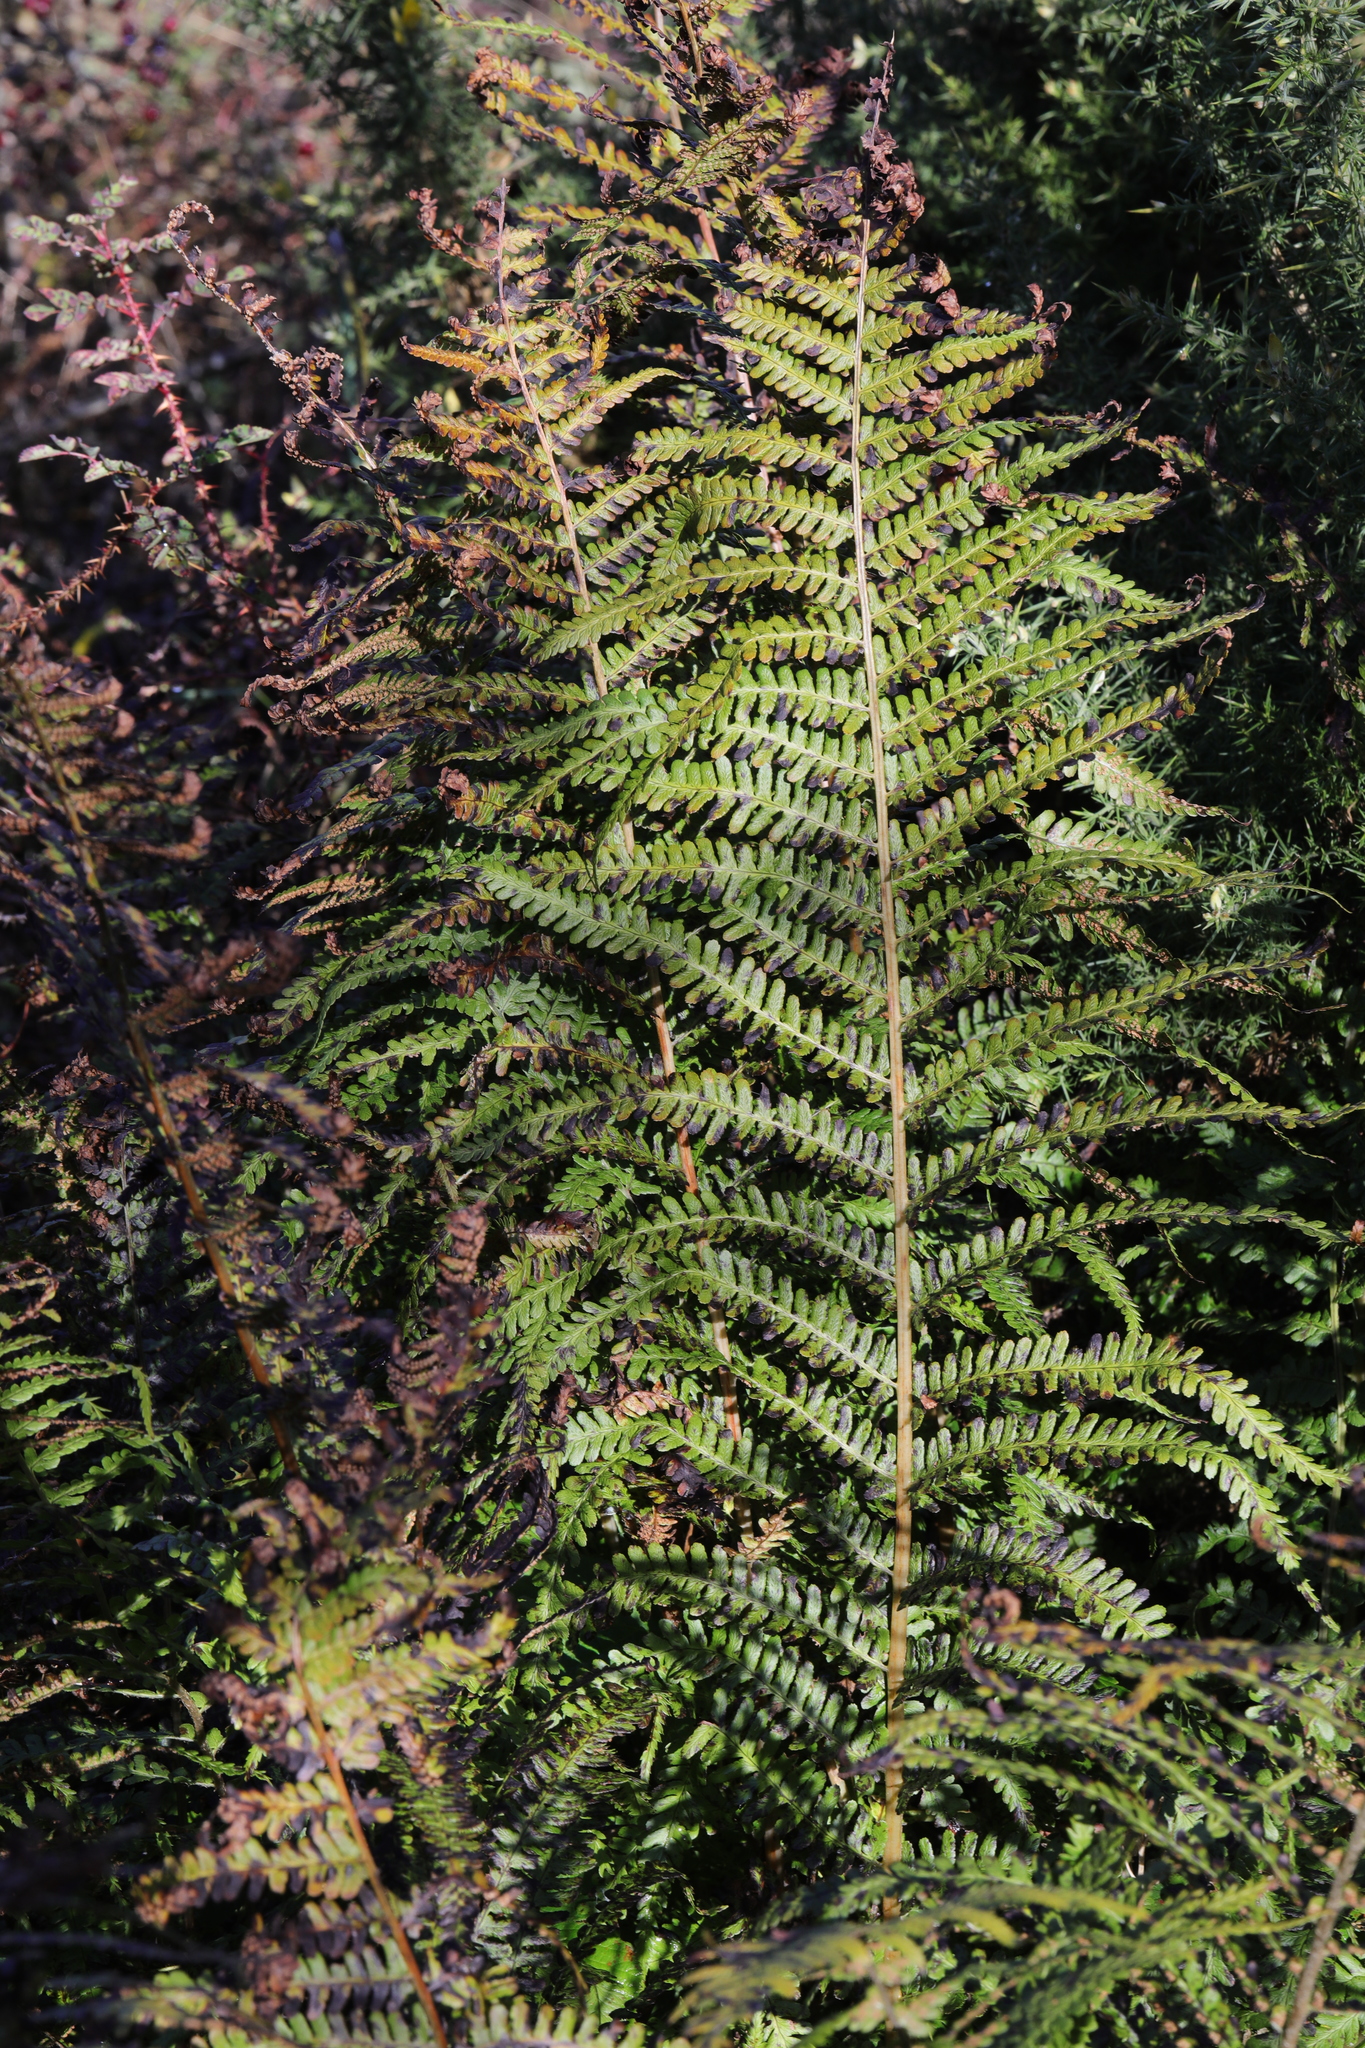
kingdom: Plantae
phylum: Tracheophyta
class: Polypodiopsida
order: Polypodiales
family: Dryopteridaceae
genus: Dryopteris
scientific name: Dryopteris filix-mas
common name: Male fern
